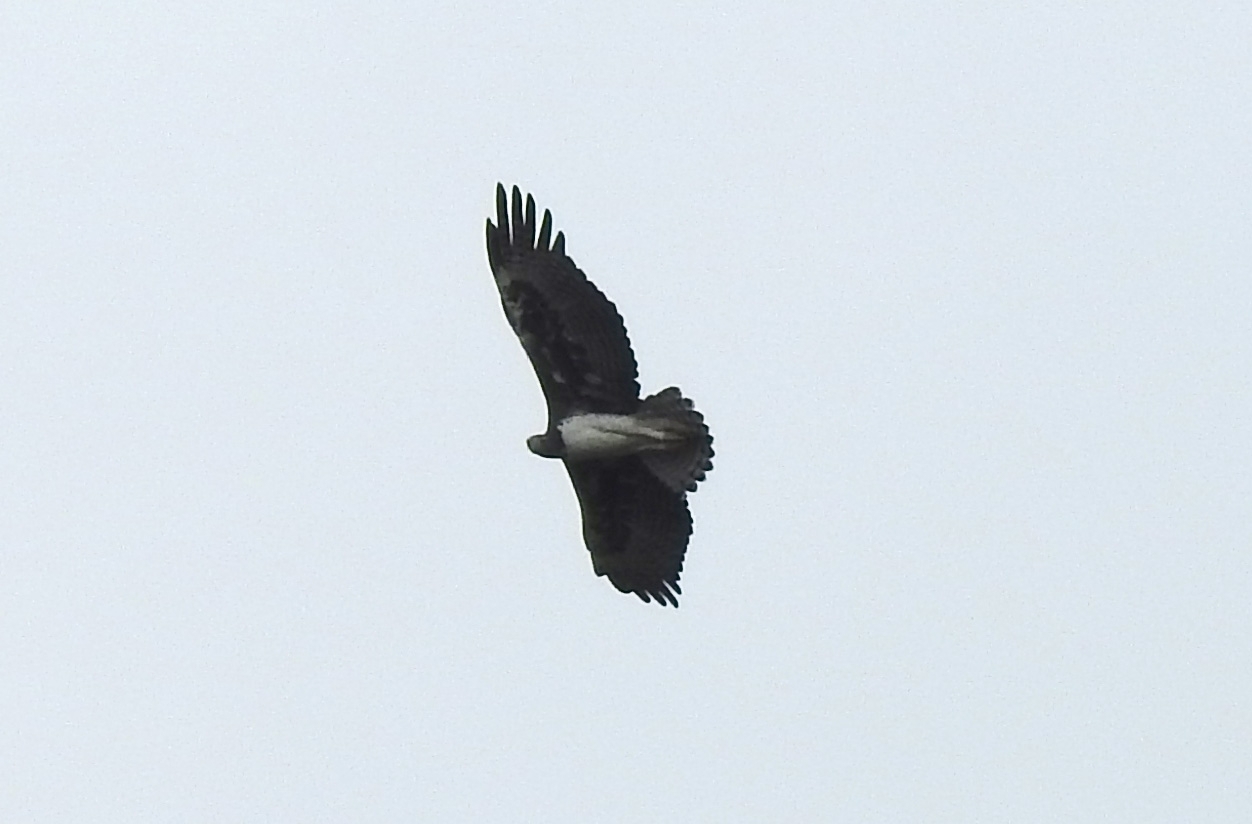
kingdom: Animalia
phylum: Chordata
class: Aves
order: Accipitriformes
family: Accipitridae
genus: Polemaetus
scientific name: Polemaetus bellicosus
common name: Martial eagle
